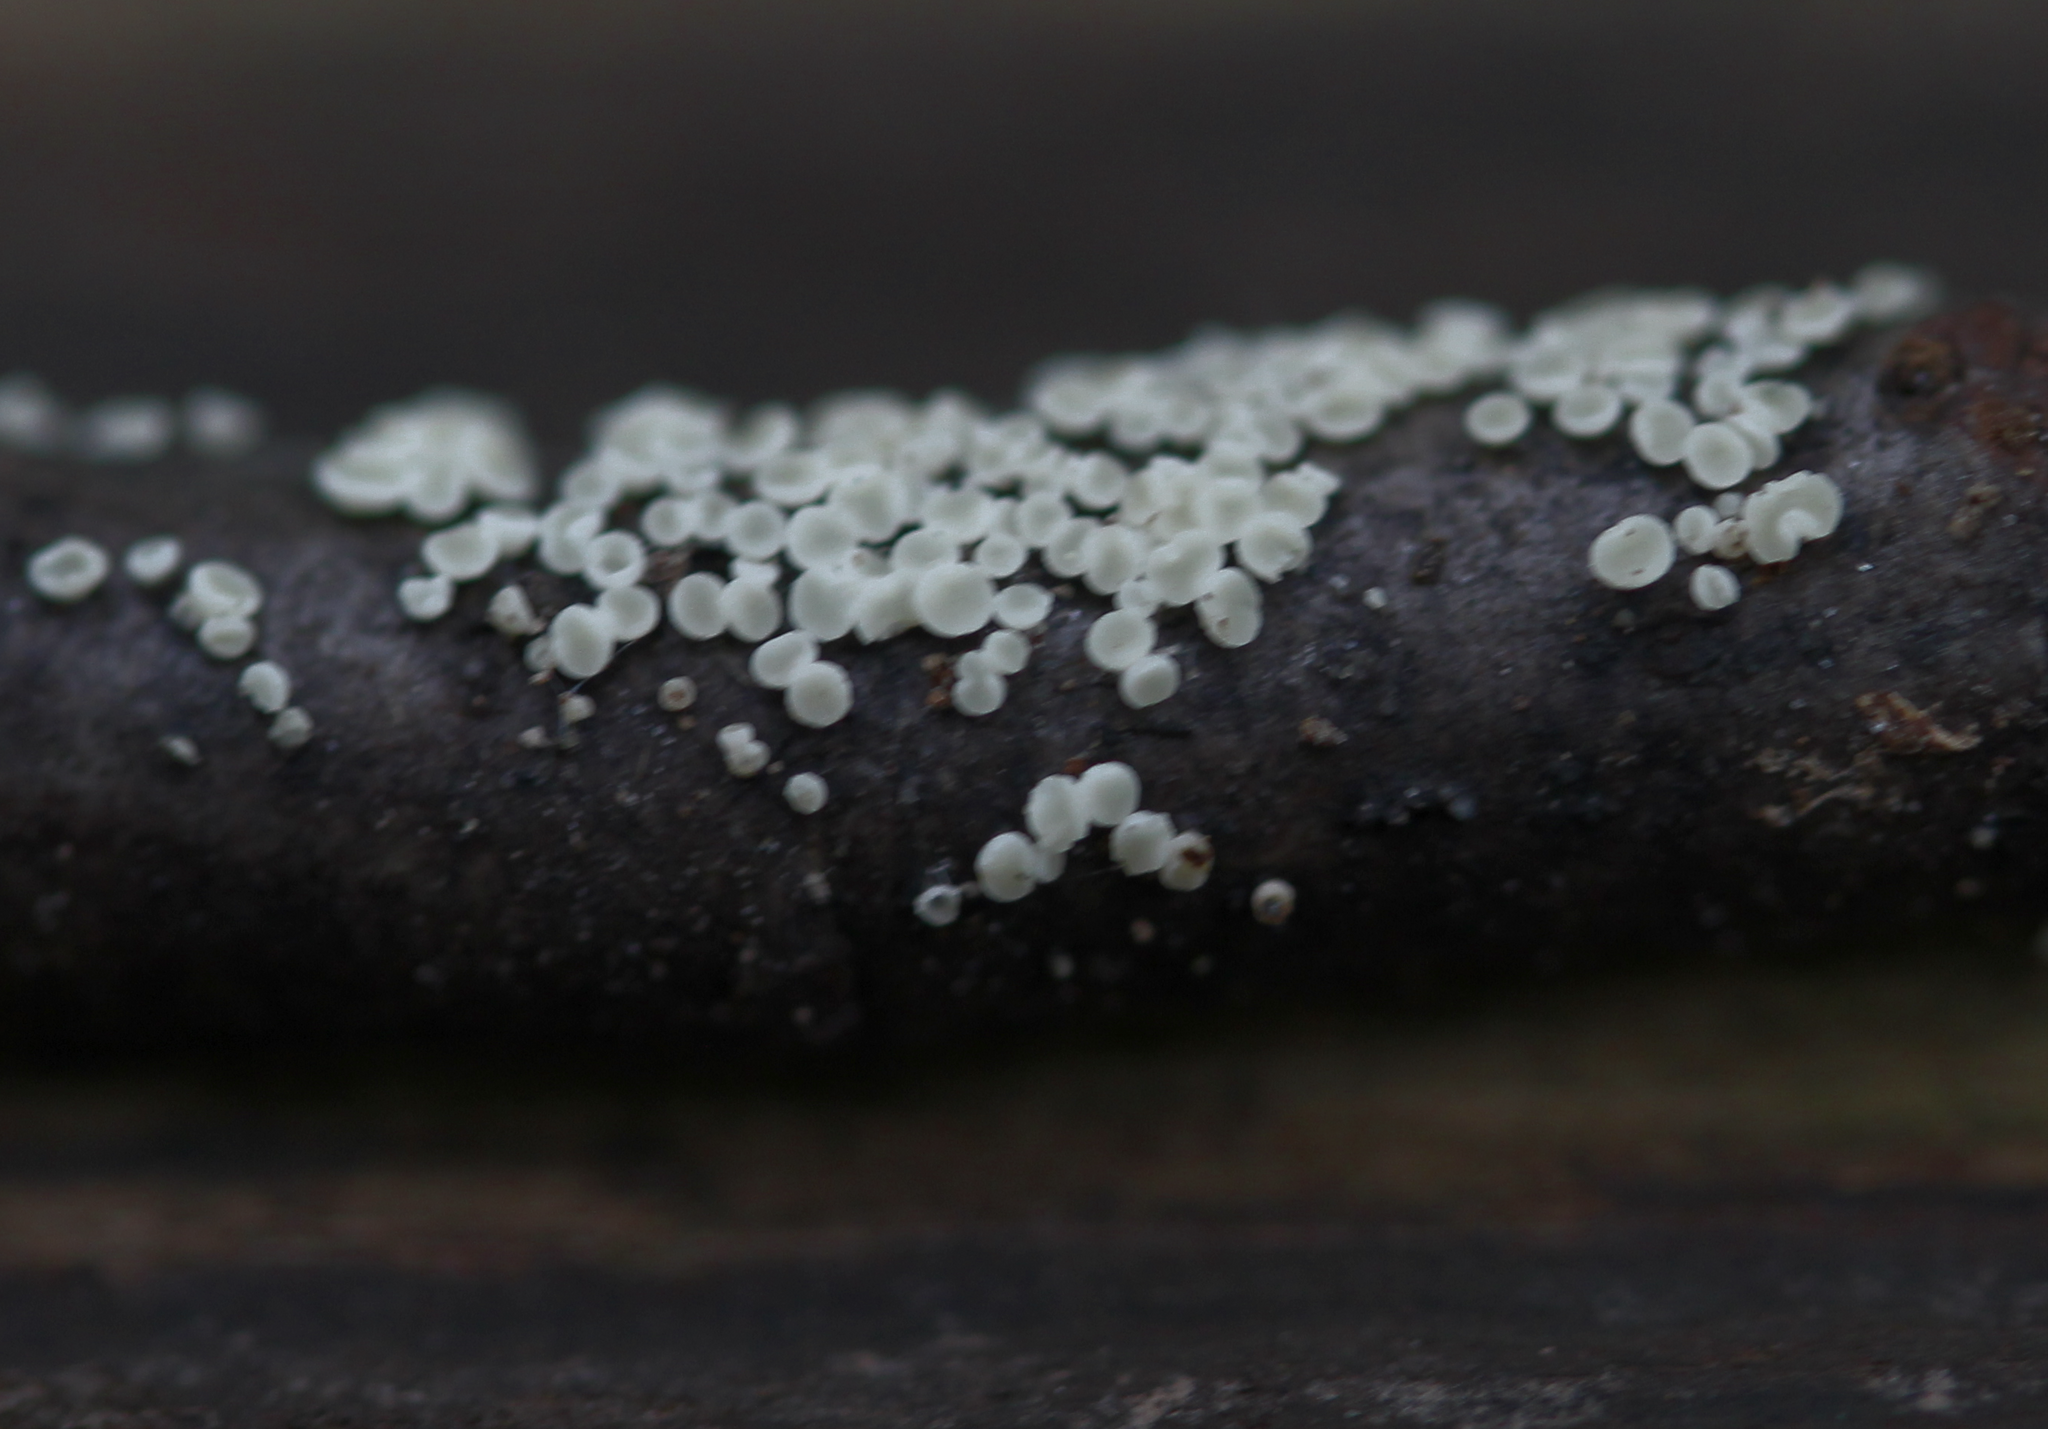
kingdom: Fungi
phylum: Ascomycota
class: Leotiomycetes
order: Helotiales
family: Lachnaceae
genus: Lachnum
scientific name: Lachnum
